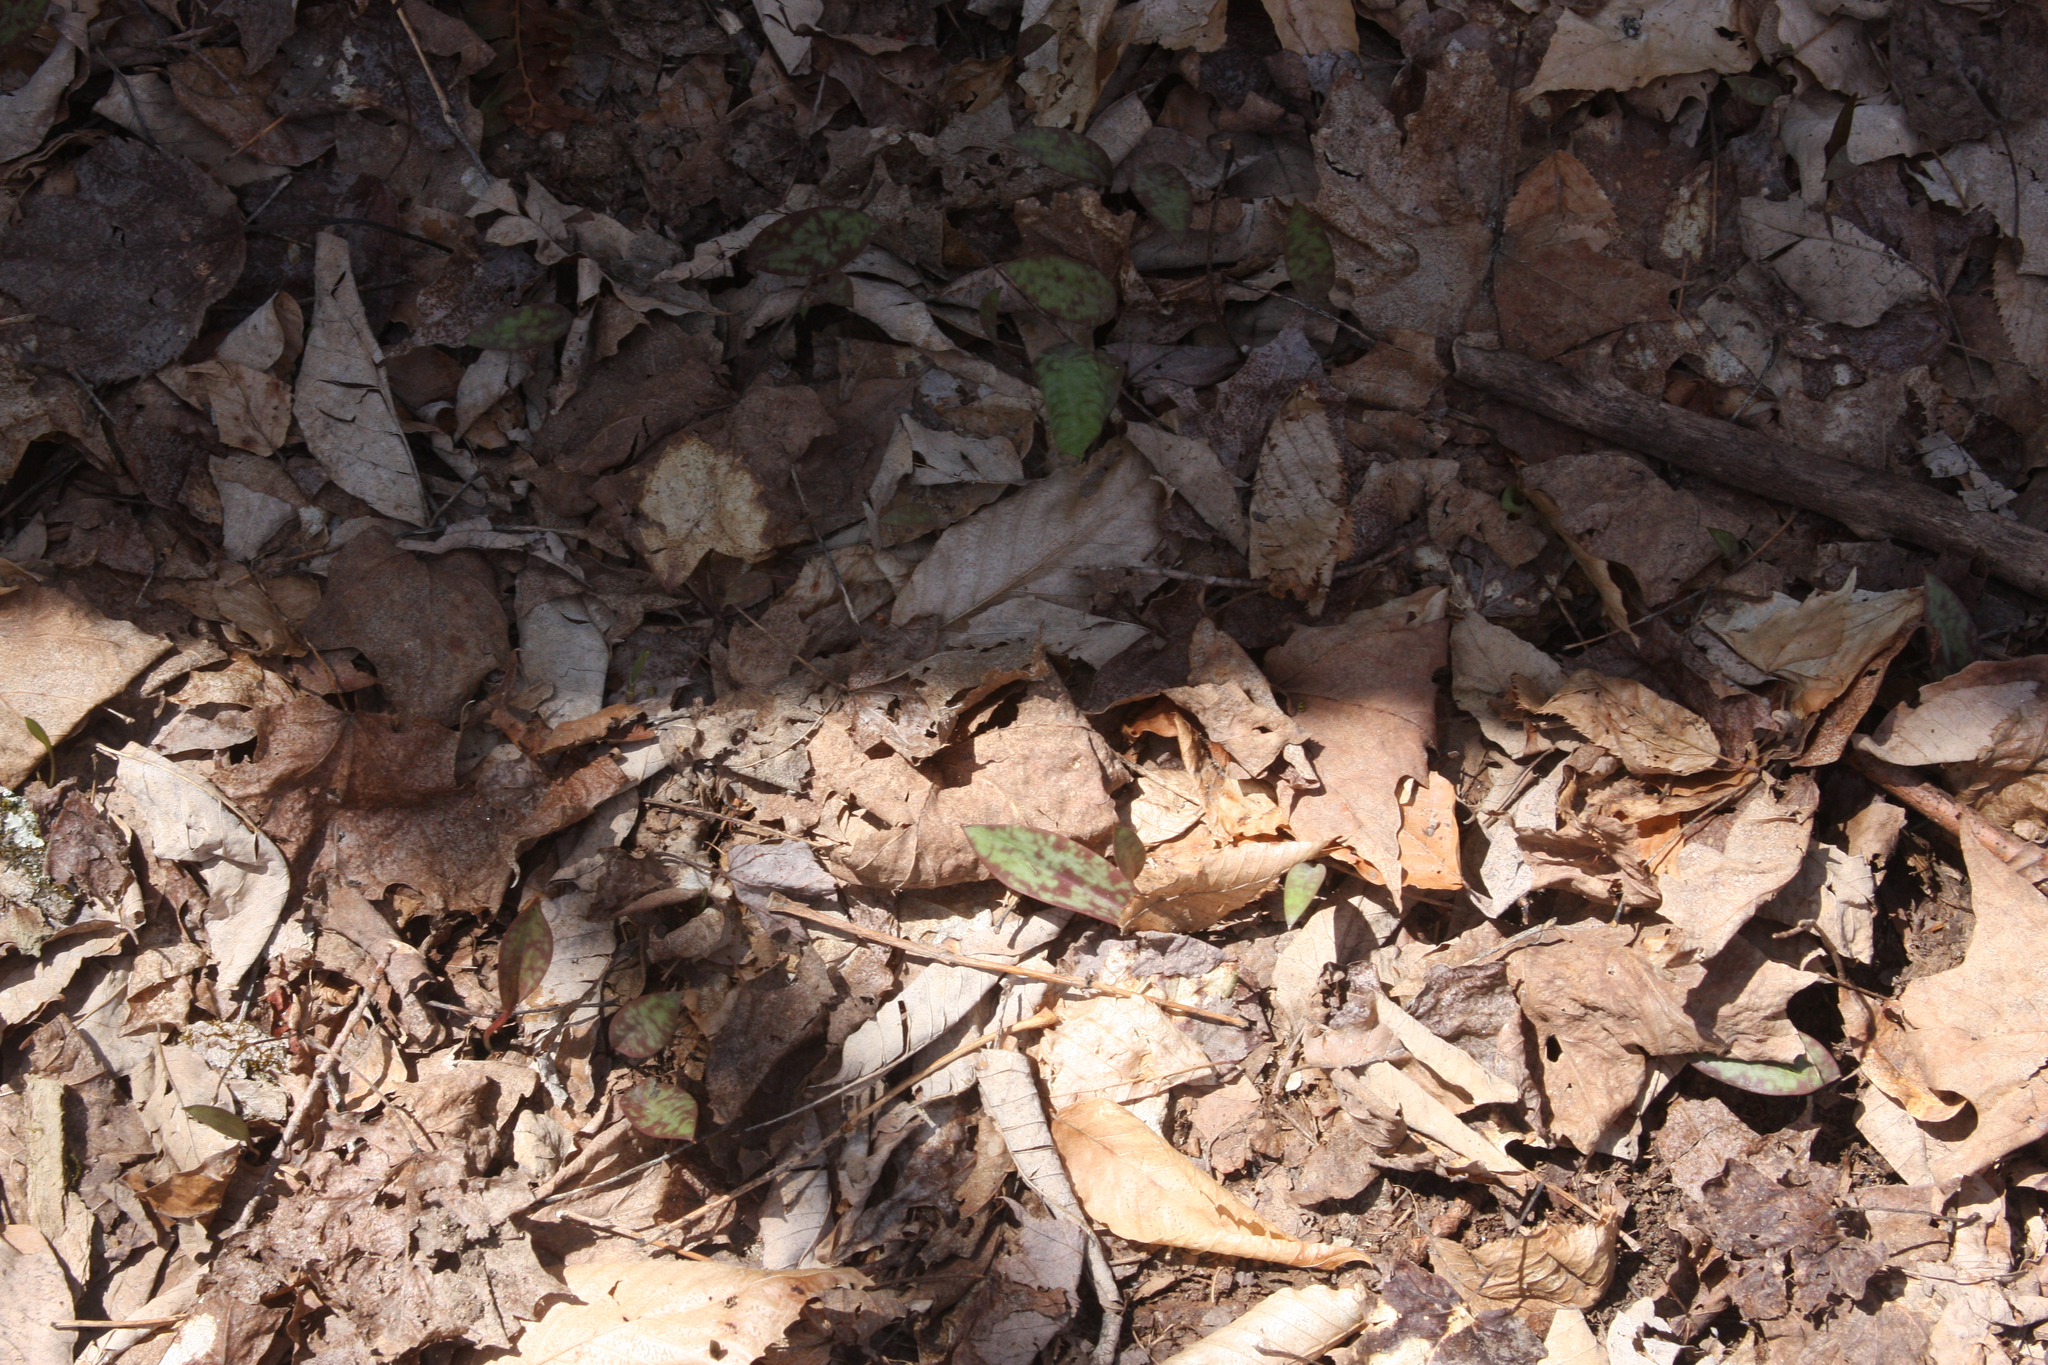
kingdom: Plantae
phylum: Tracheophyta
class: Liliopsida
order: Liliales
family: Liliaceae
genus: Erythronium
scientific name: Erythronium americanum
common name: Yellow adder's-tongue
